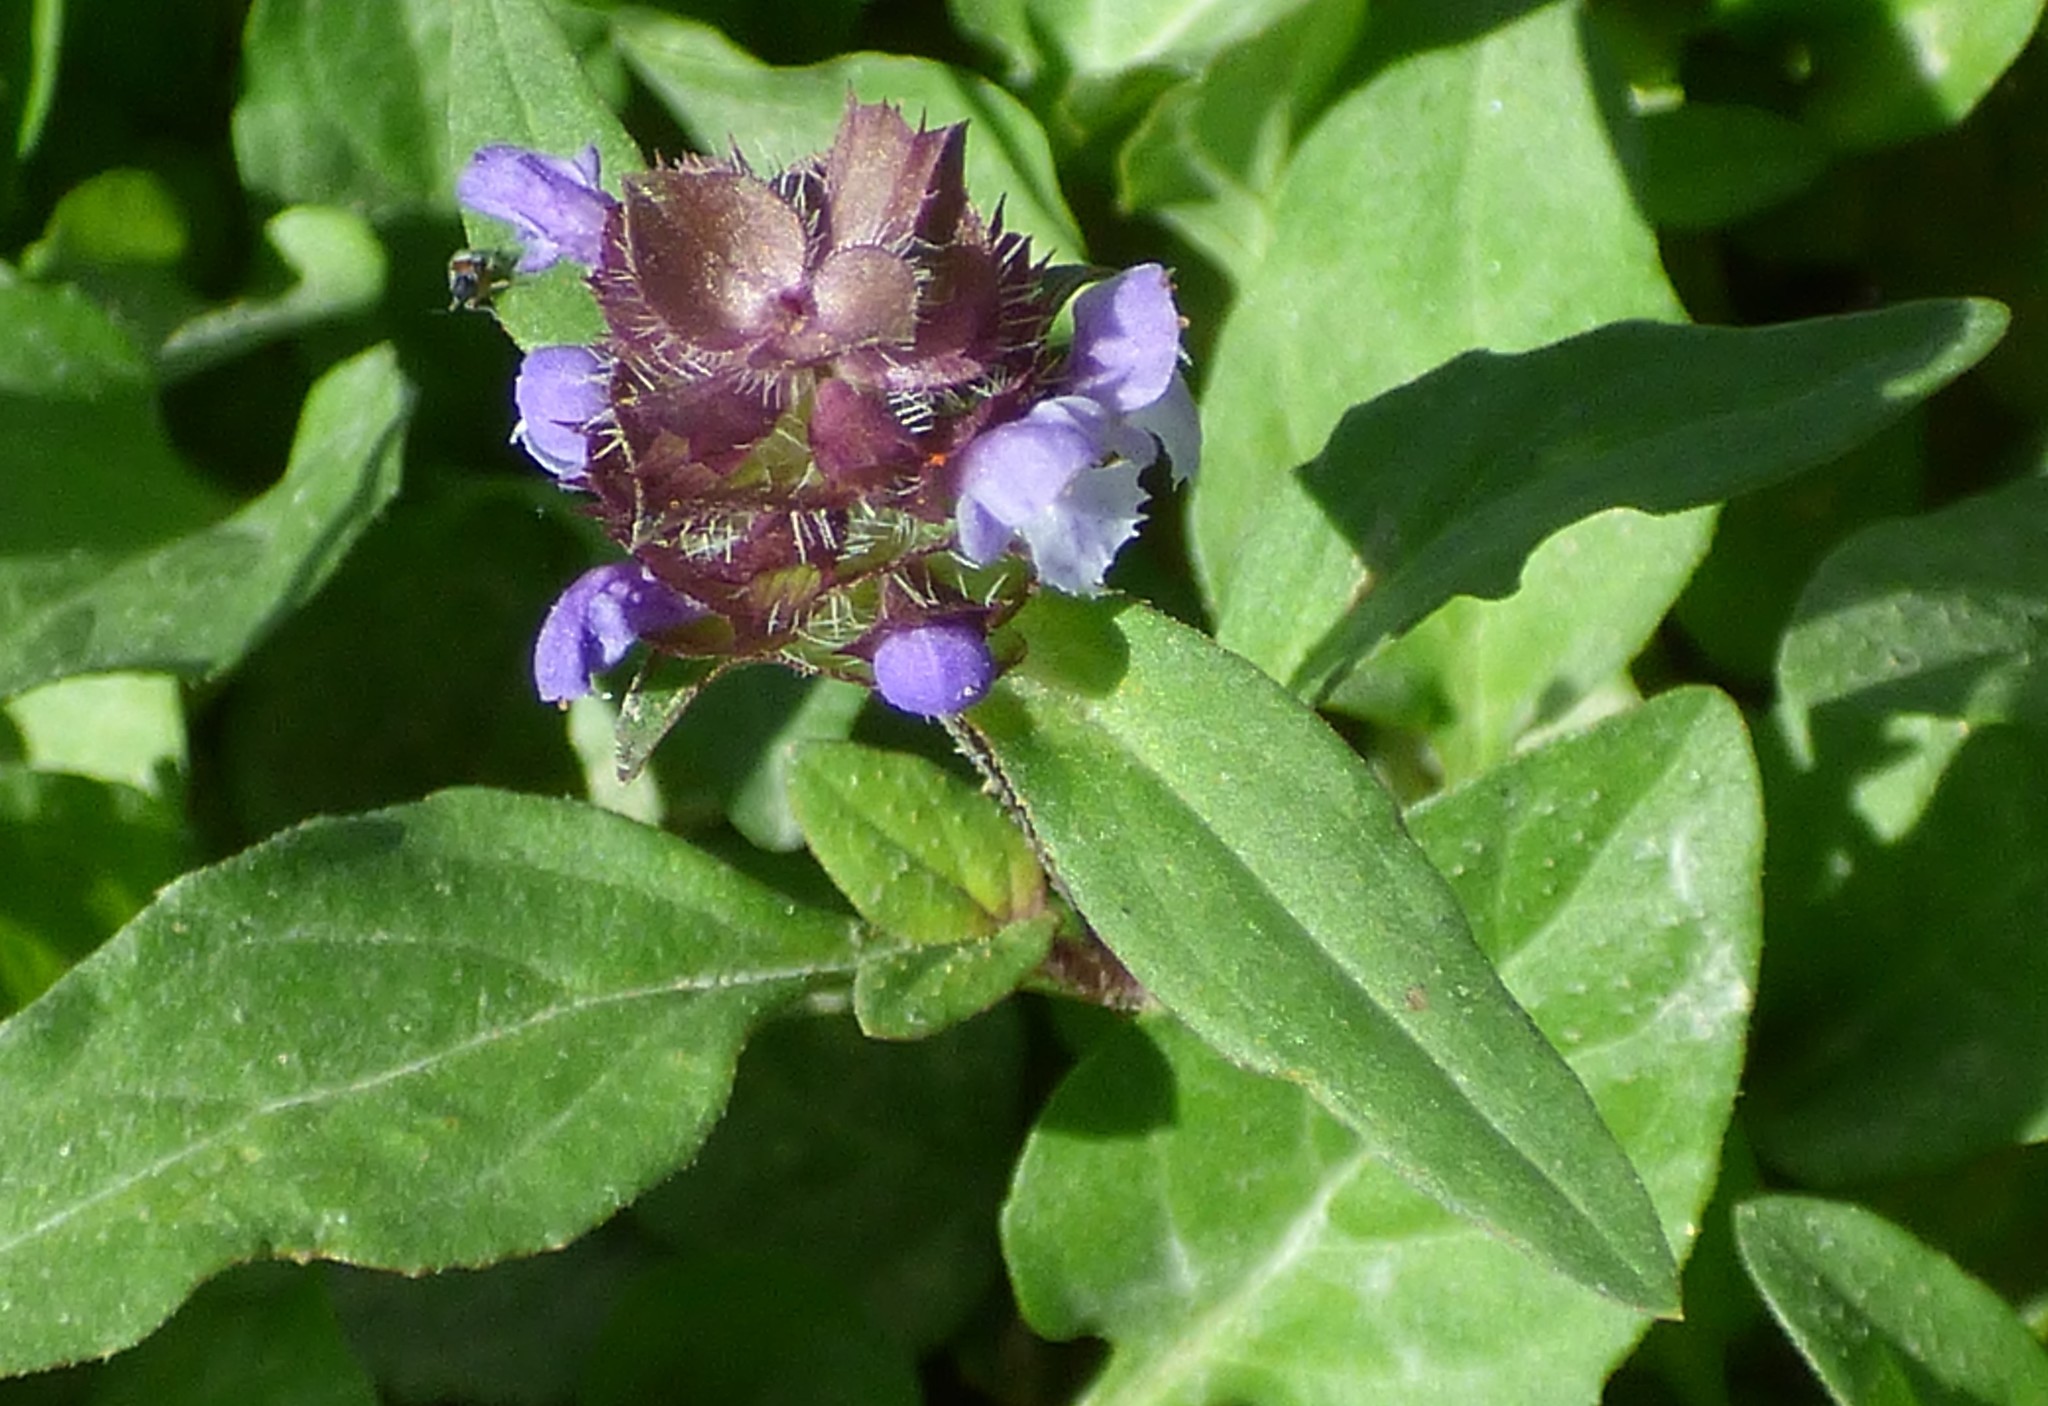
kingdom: Plantae
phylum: Tracheophyta
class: Magnoliopsida
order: Lamiales
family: Lamiaceae
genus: Prunella
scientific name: Prunella vulgaris
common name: Heal-all
